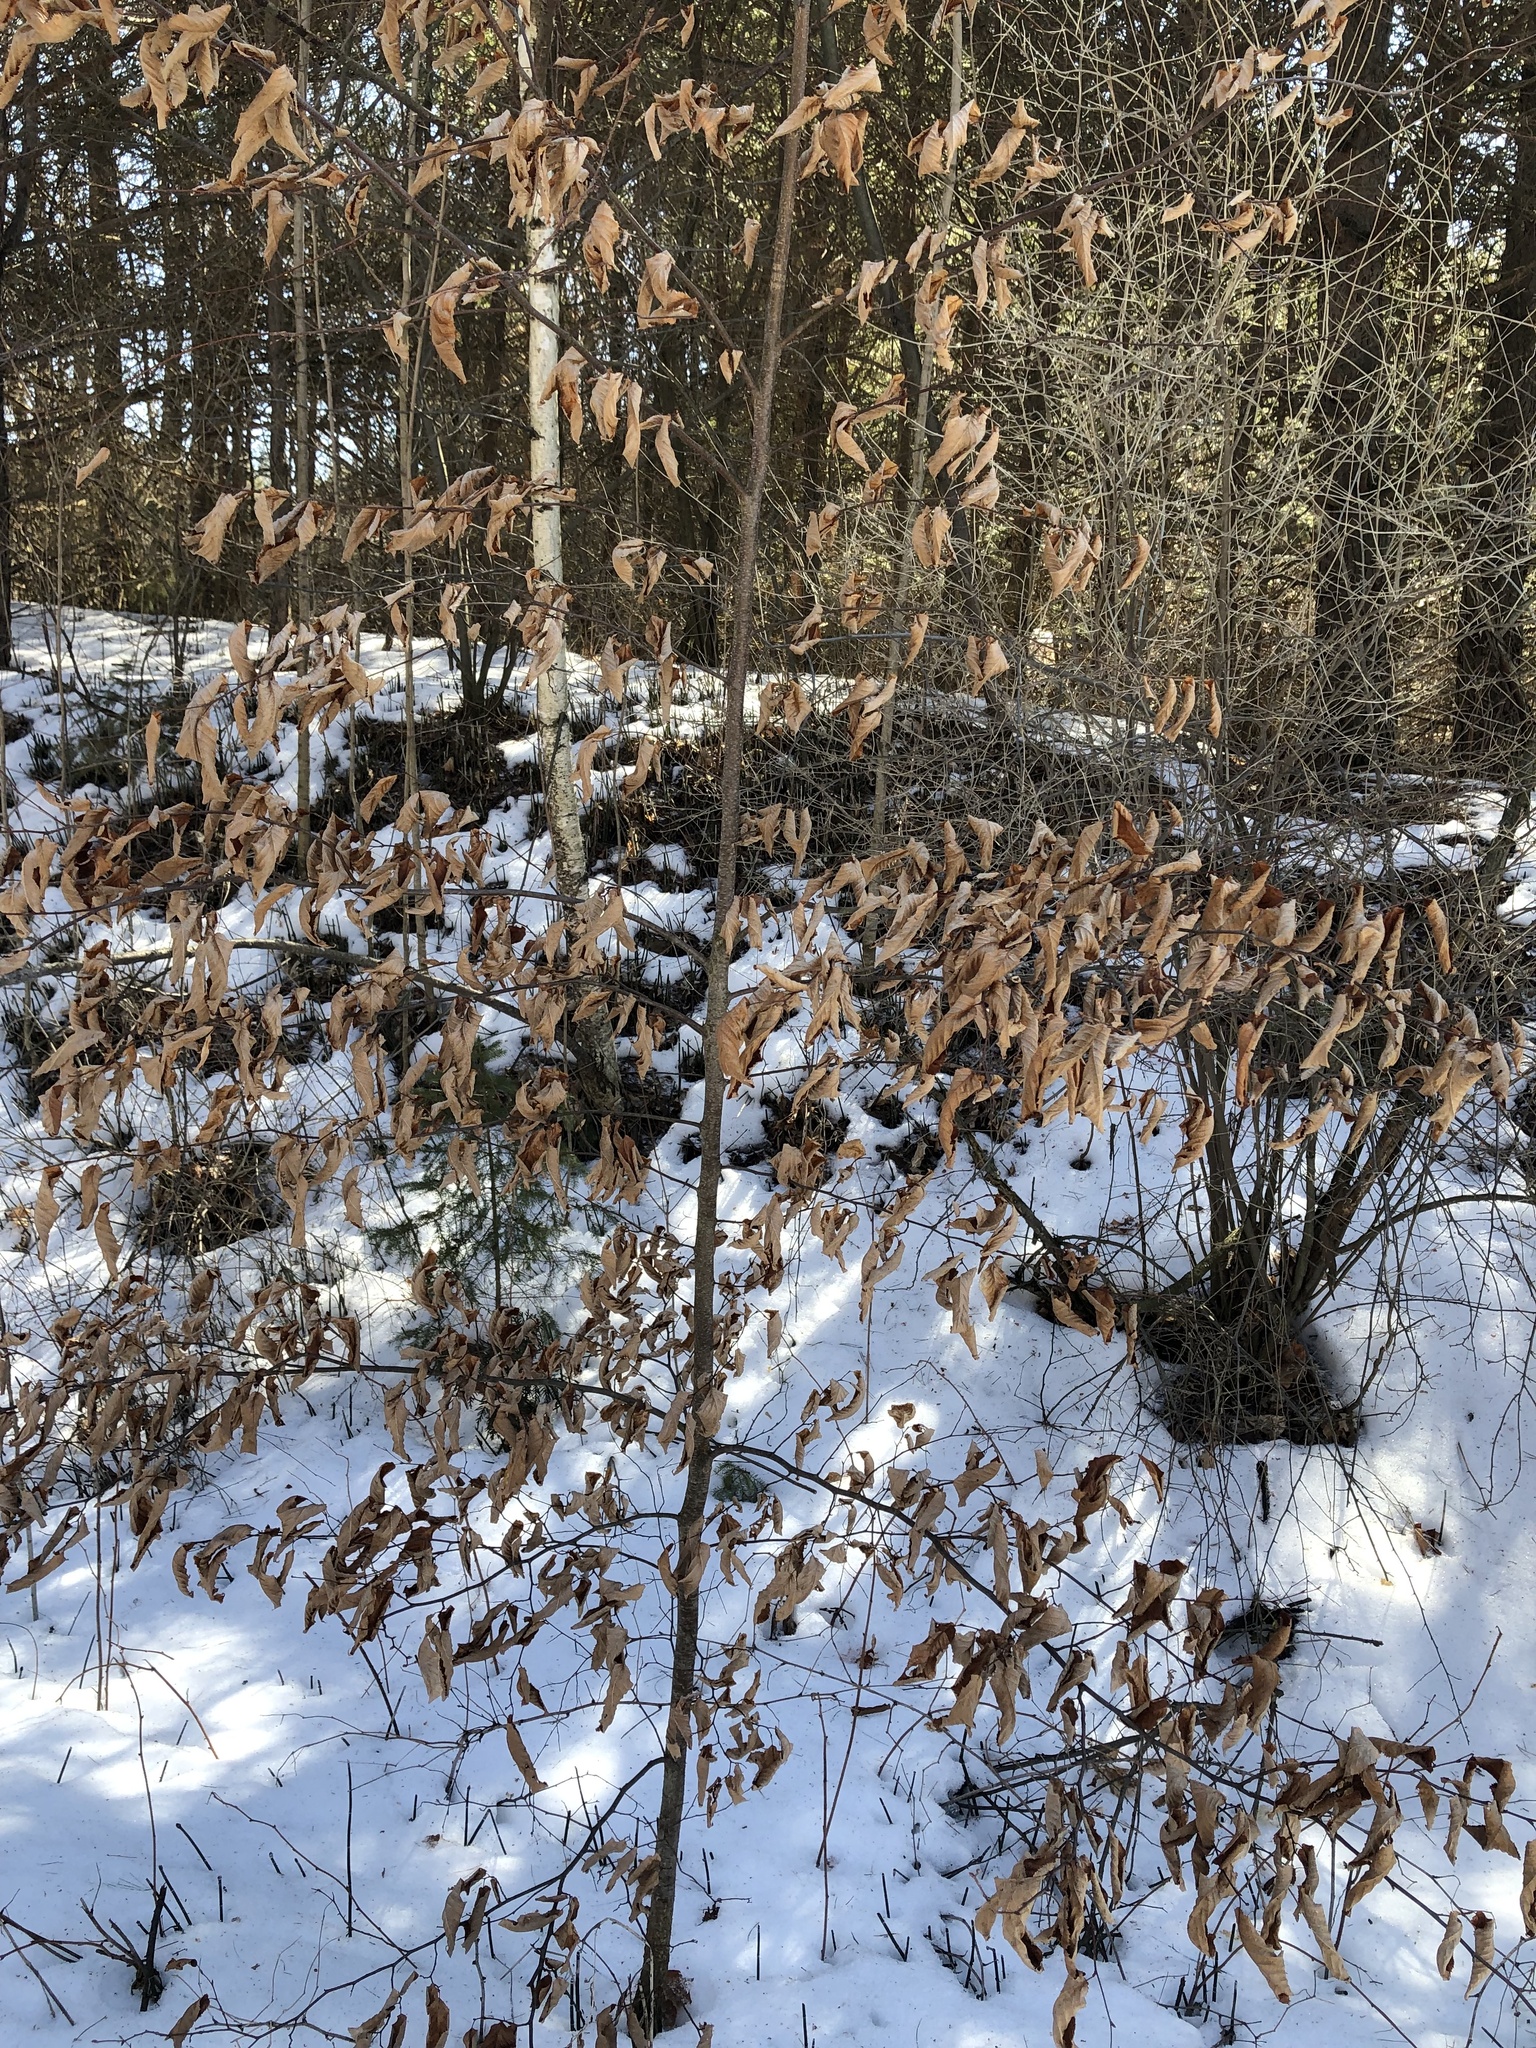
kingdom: Plantae
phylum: Tracheophyta
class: Magnoliopsida
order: Fagales
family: Fagaceae
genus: Fagus
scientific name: Fagus grandifolia
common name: American beech
